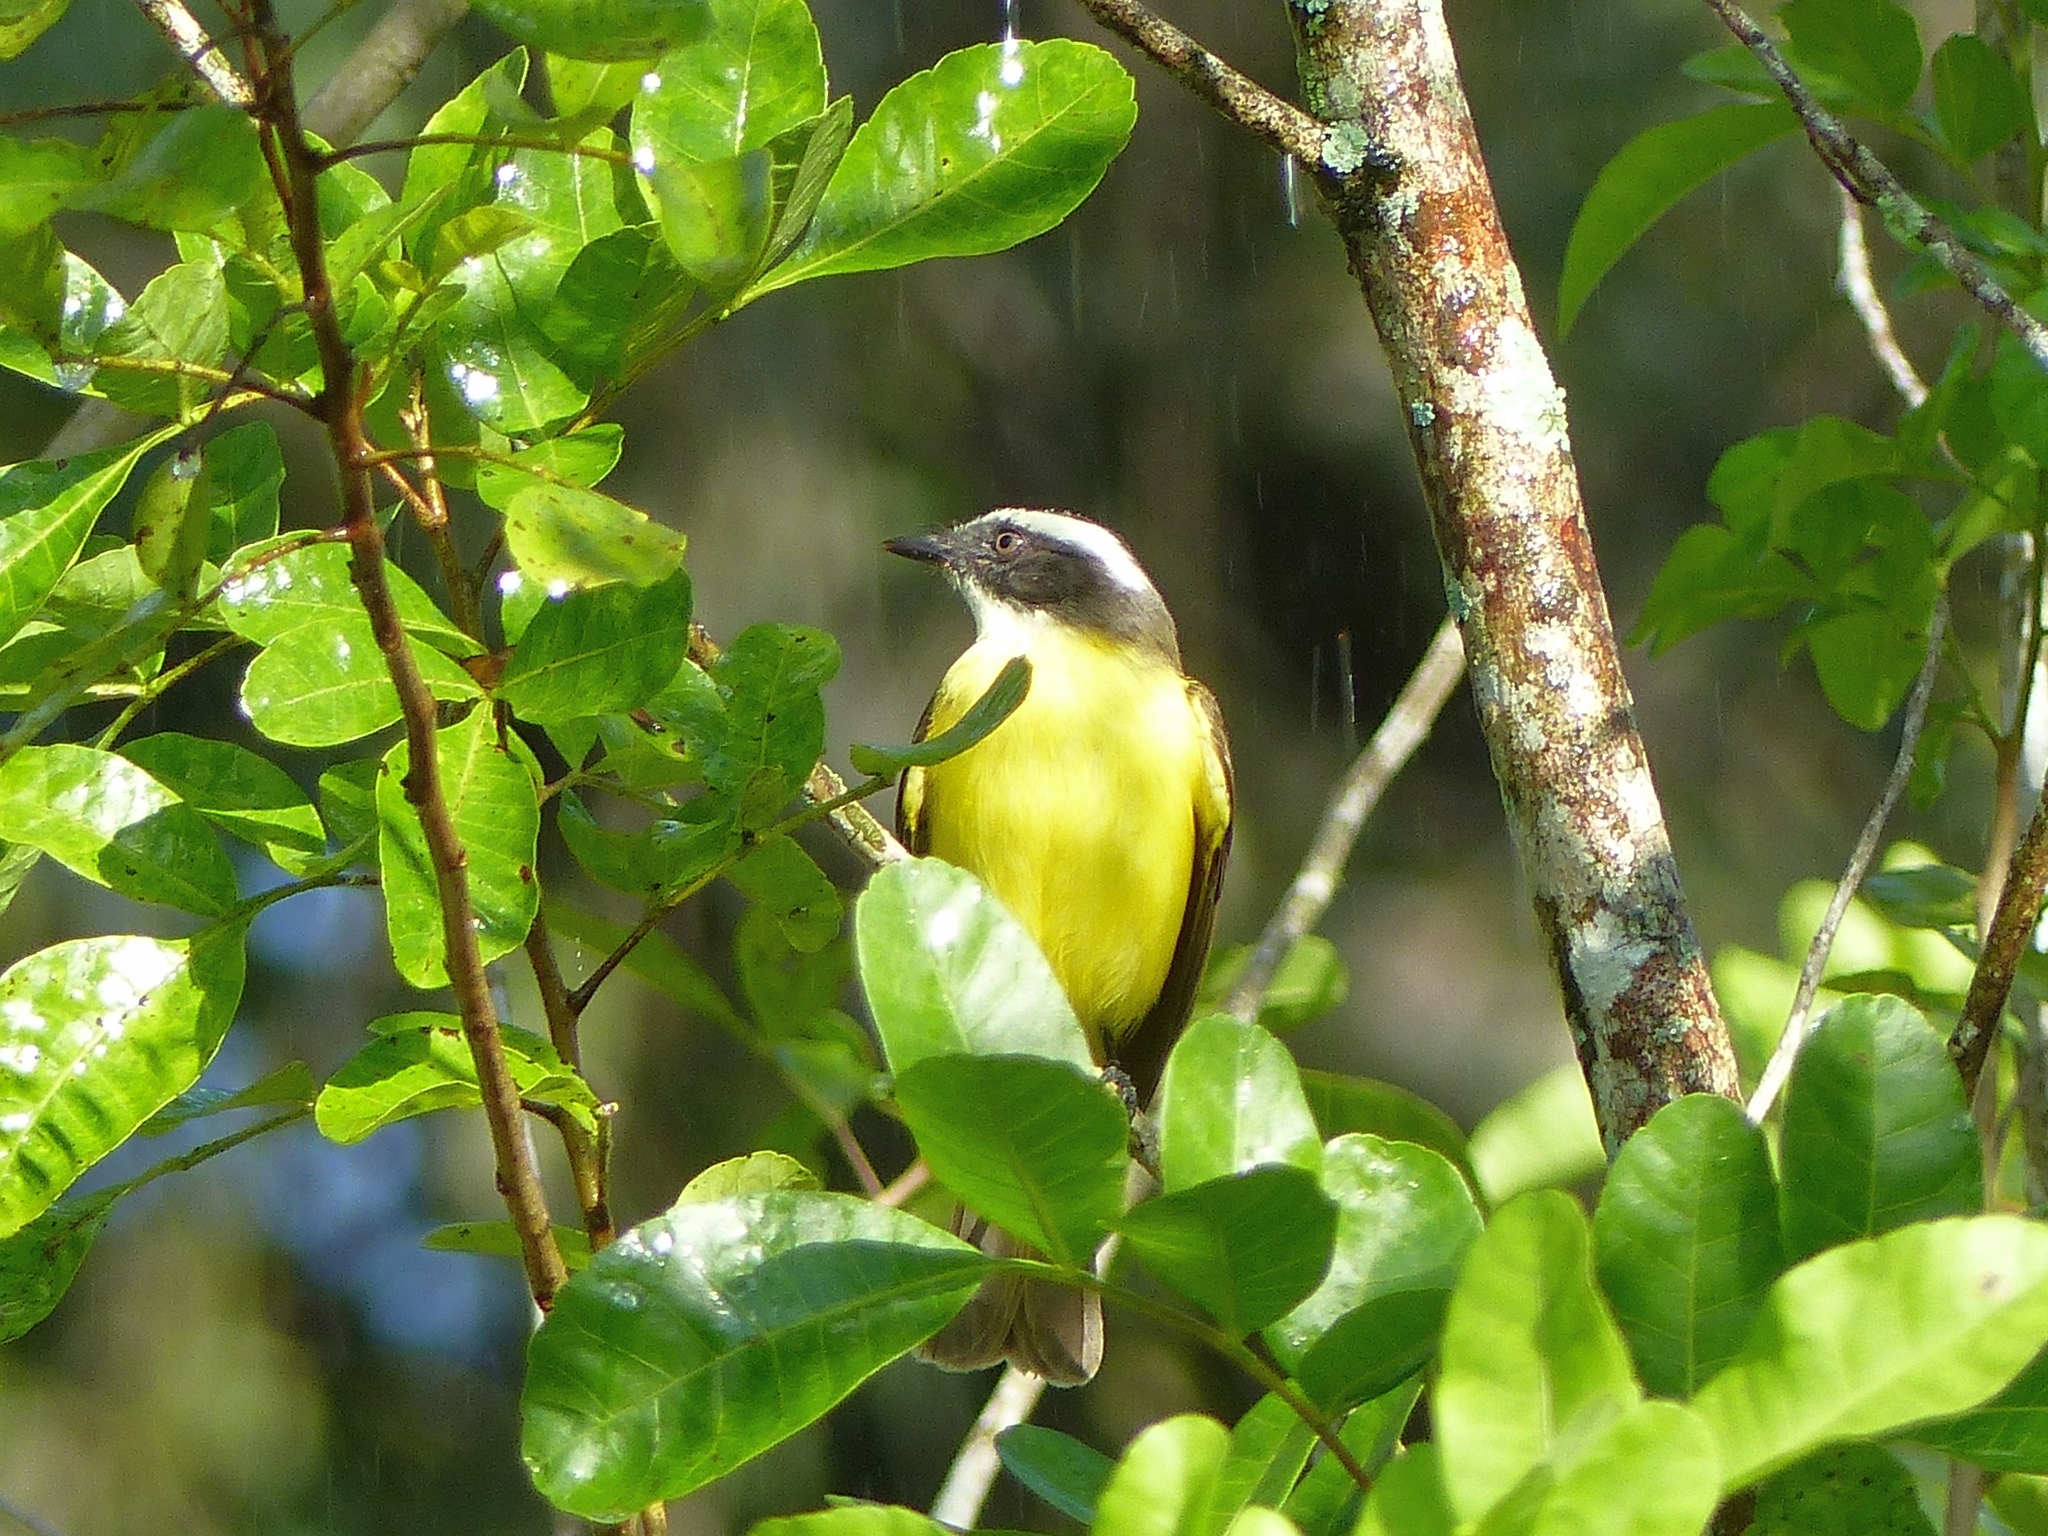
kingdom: Animalia
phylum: Chordata
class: Aves
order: Passeriformes
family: Tyrannidae
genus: Myiozetetes
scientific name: Myiozetetes similis
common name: Social flycatcher
